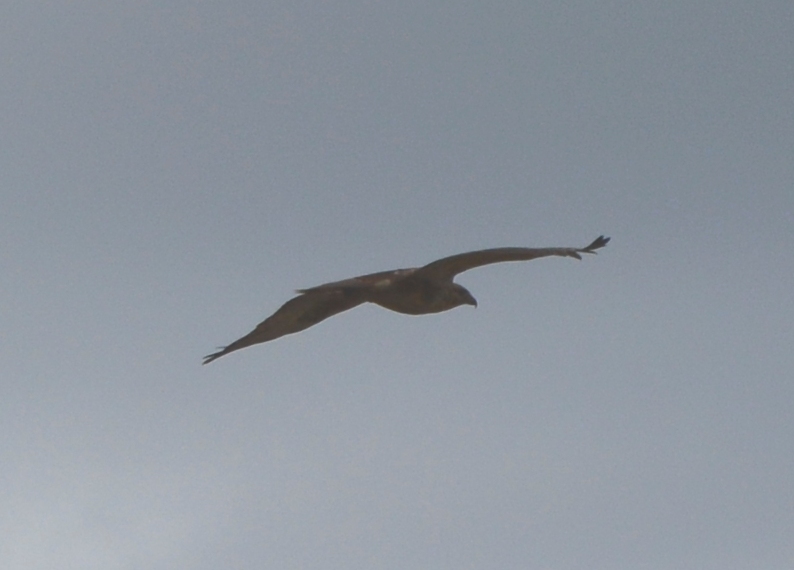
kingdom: Animalia
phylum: Chordata
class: Aves
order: Accipitriformes
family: Pandionidae
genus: Pandion
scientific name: Pandion haliaetus
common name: Osprey
